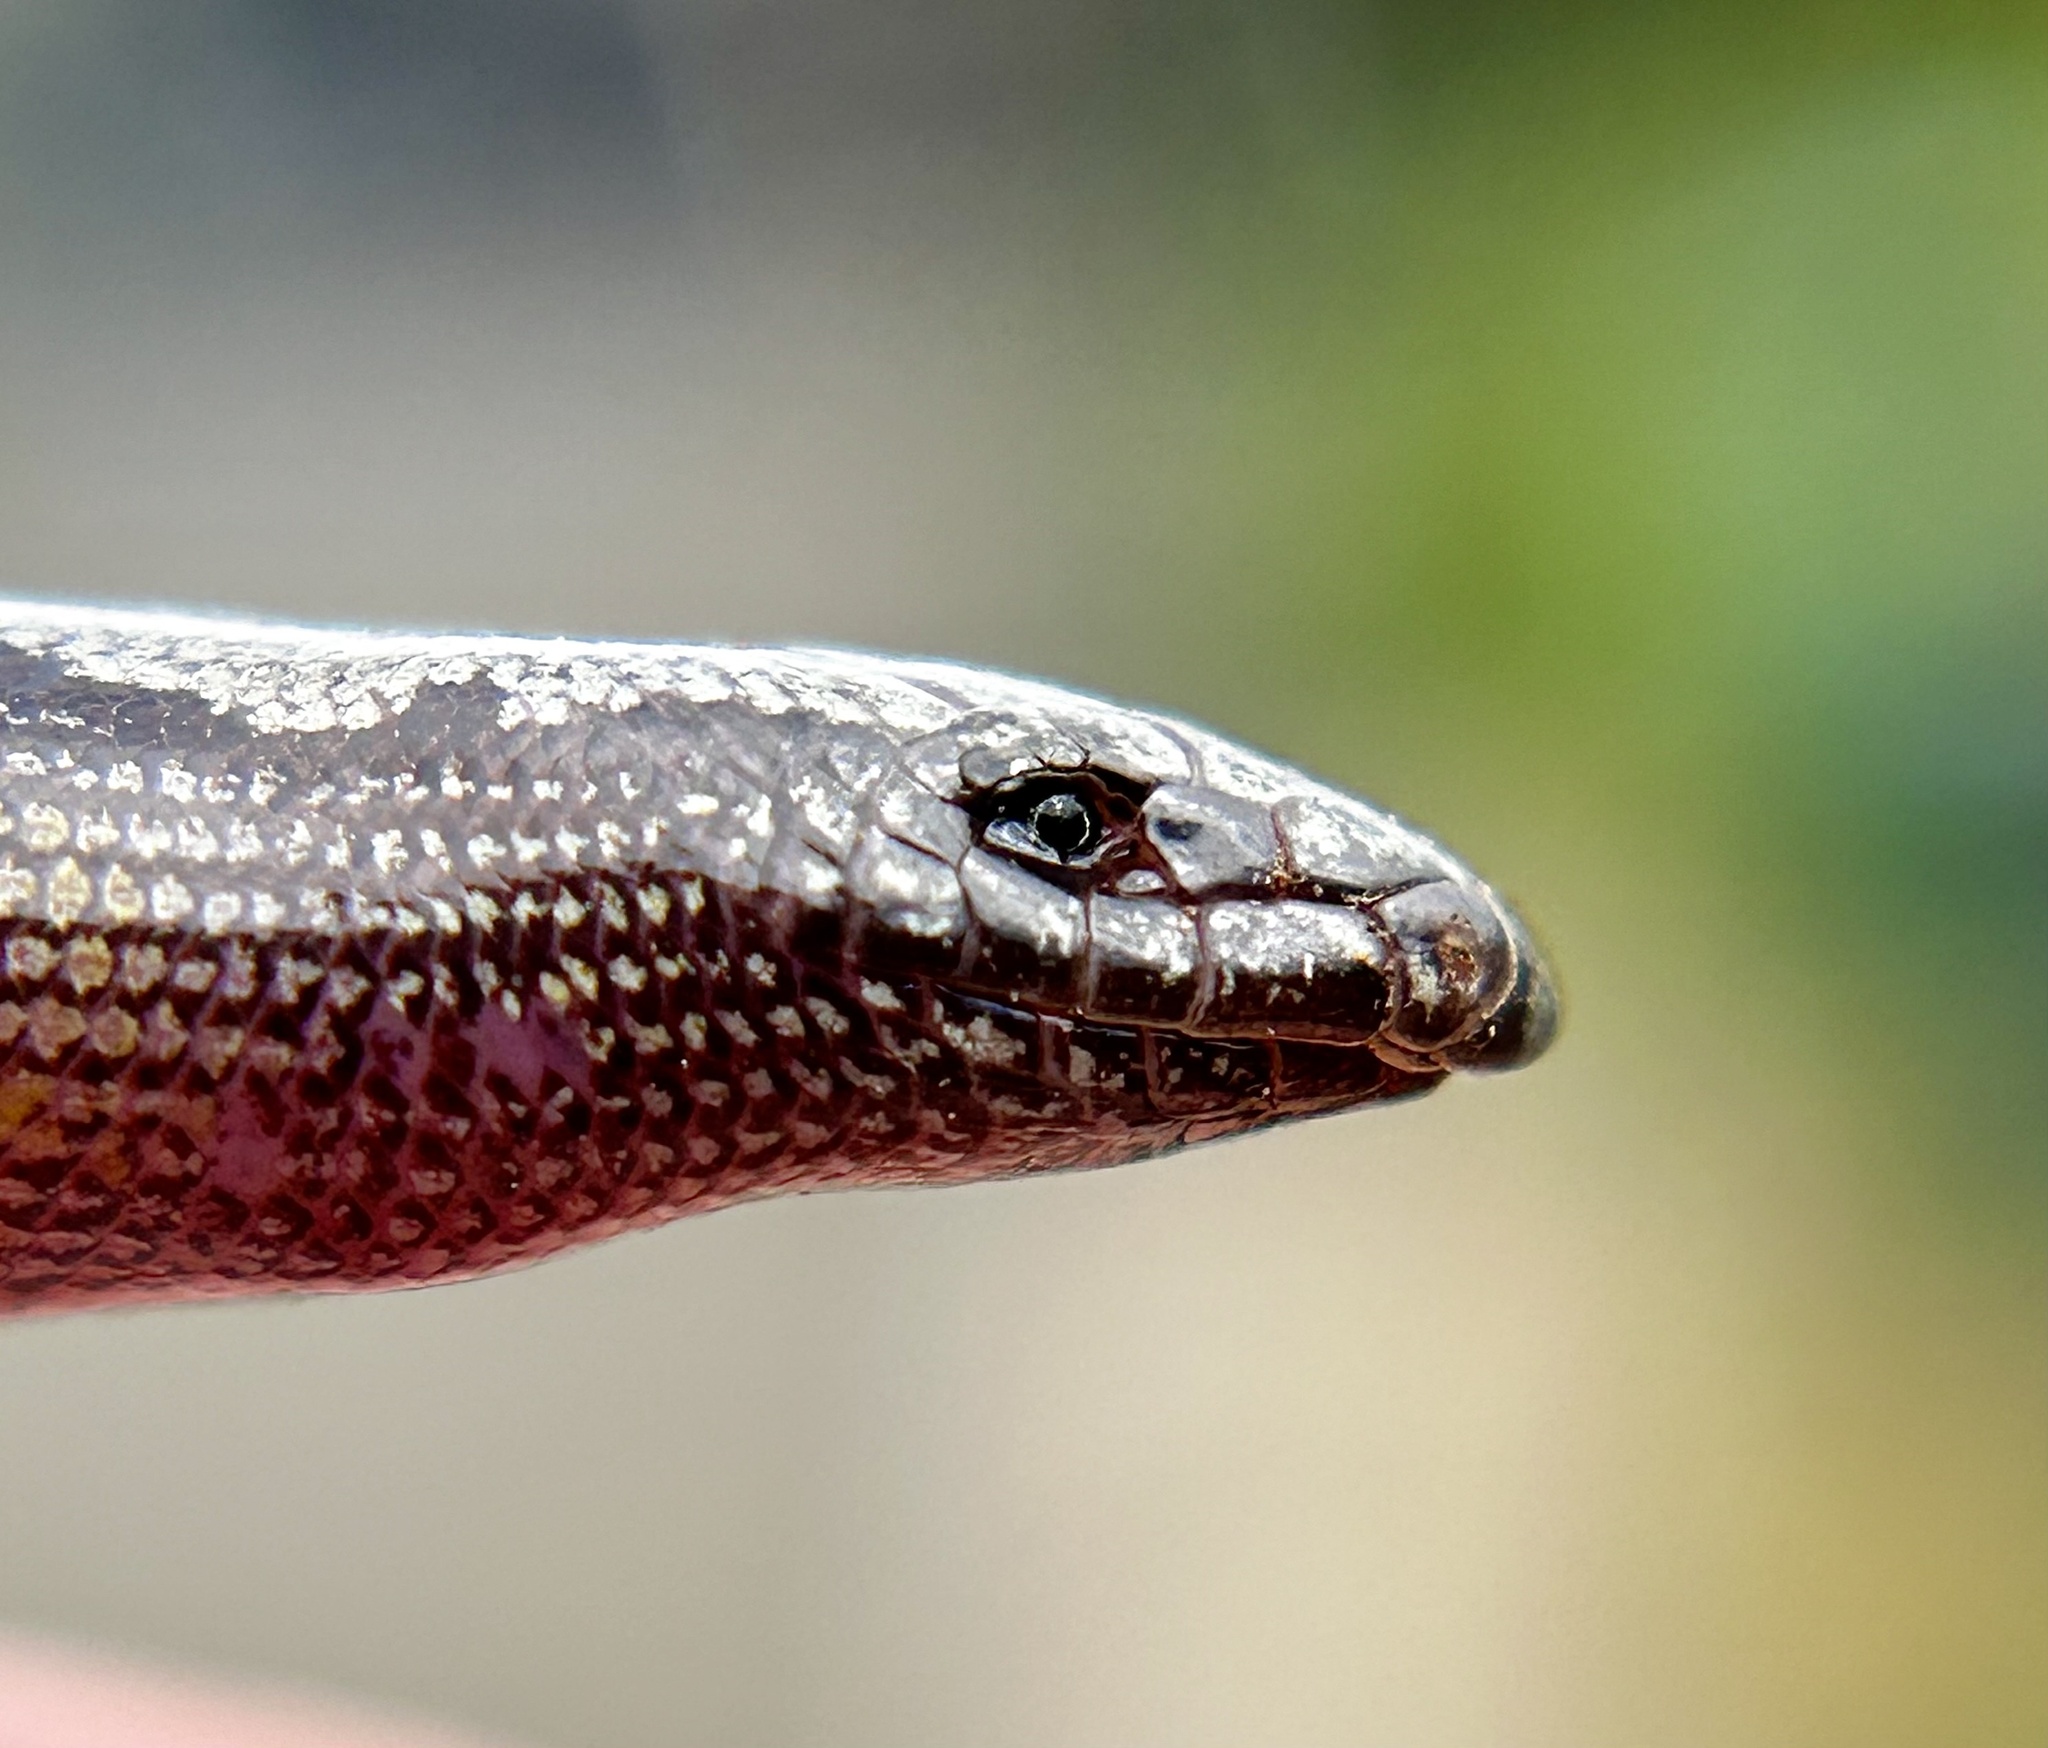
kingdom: Animalia
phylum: Chordata
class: Squamata
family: Anguidae
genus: Anniella
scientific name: Anniella pulchra
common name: California legless lizard
